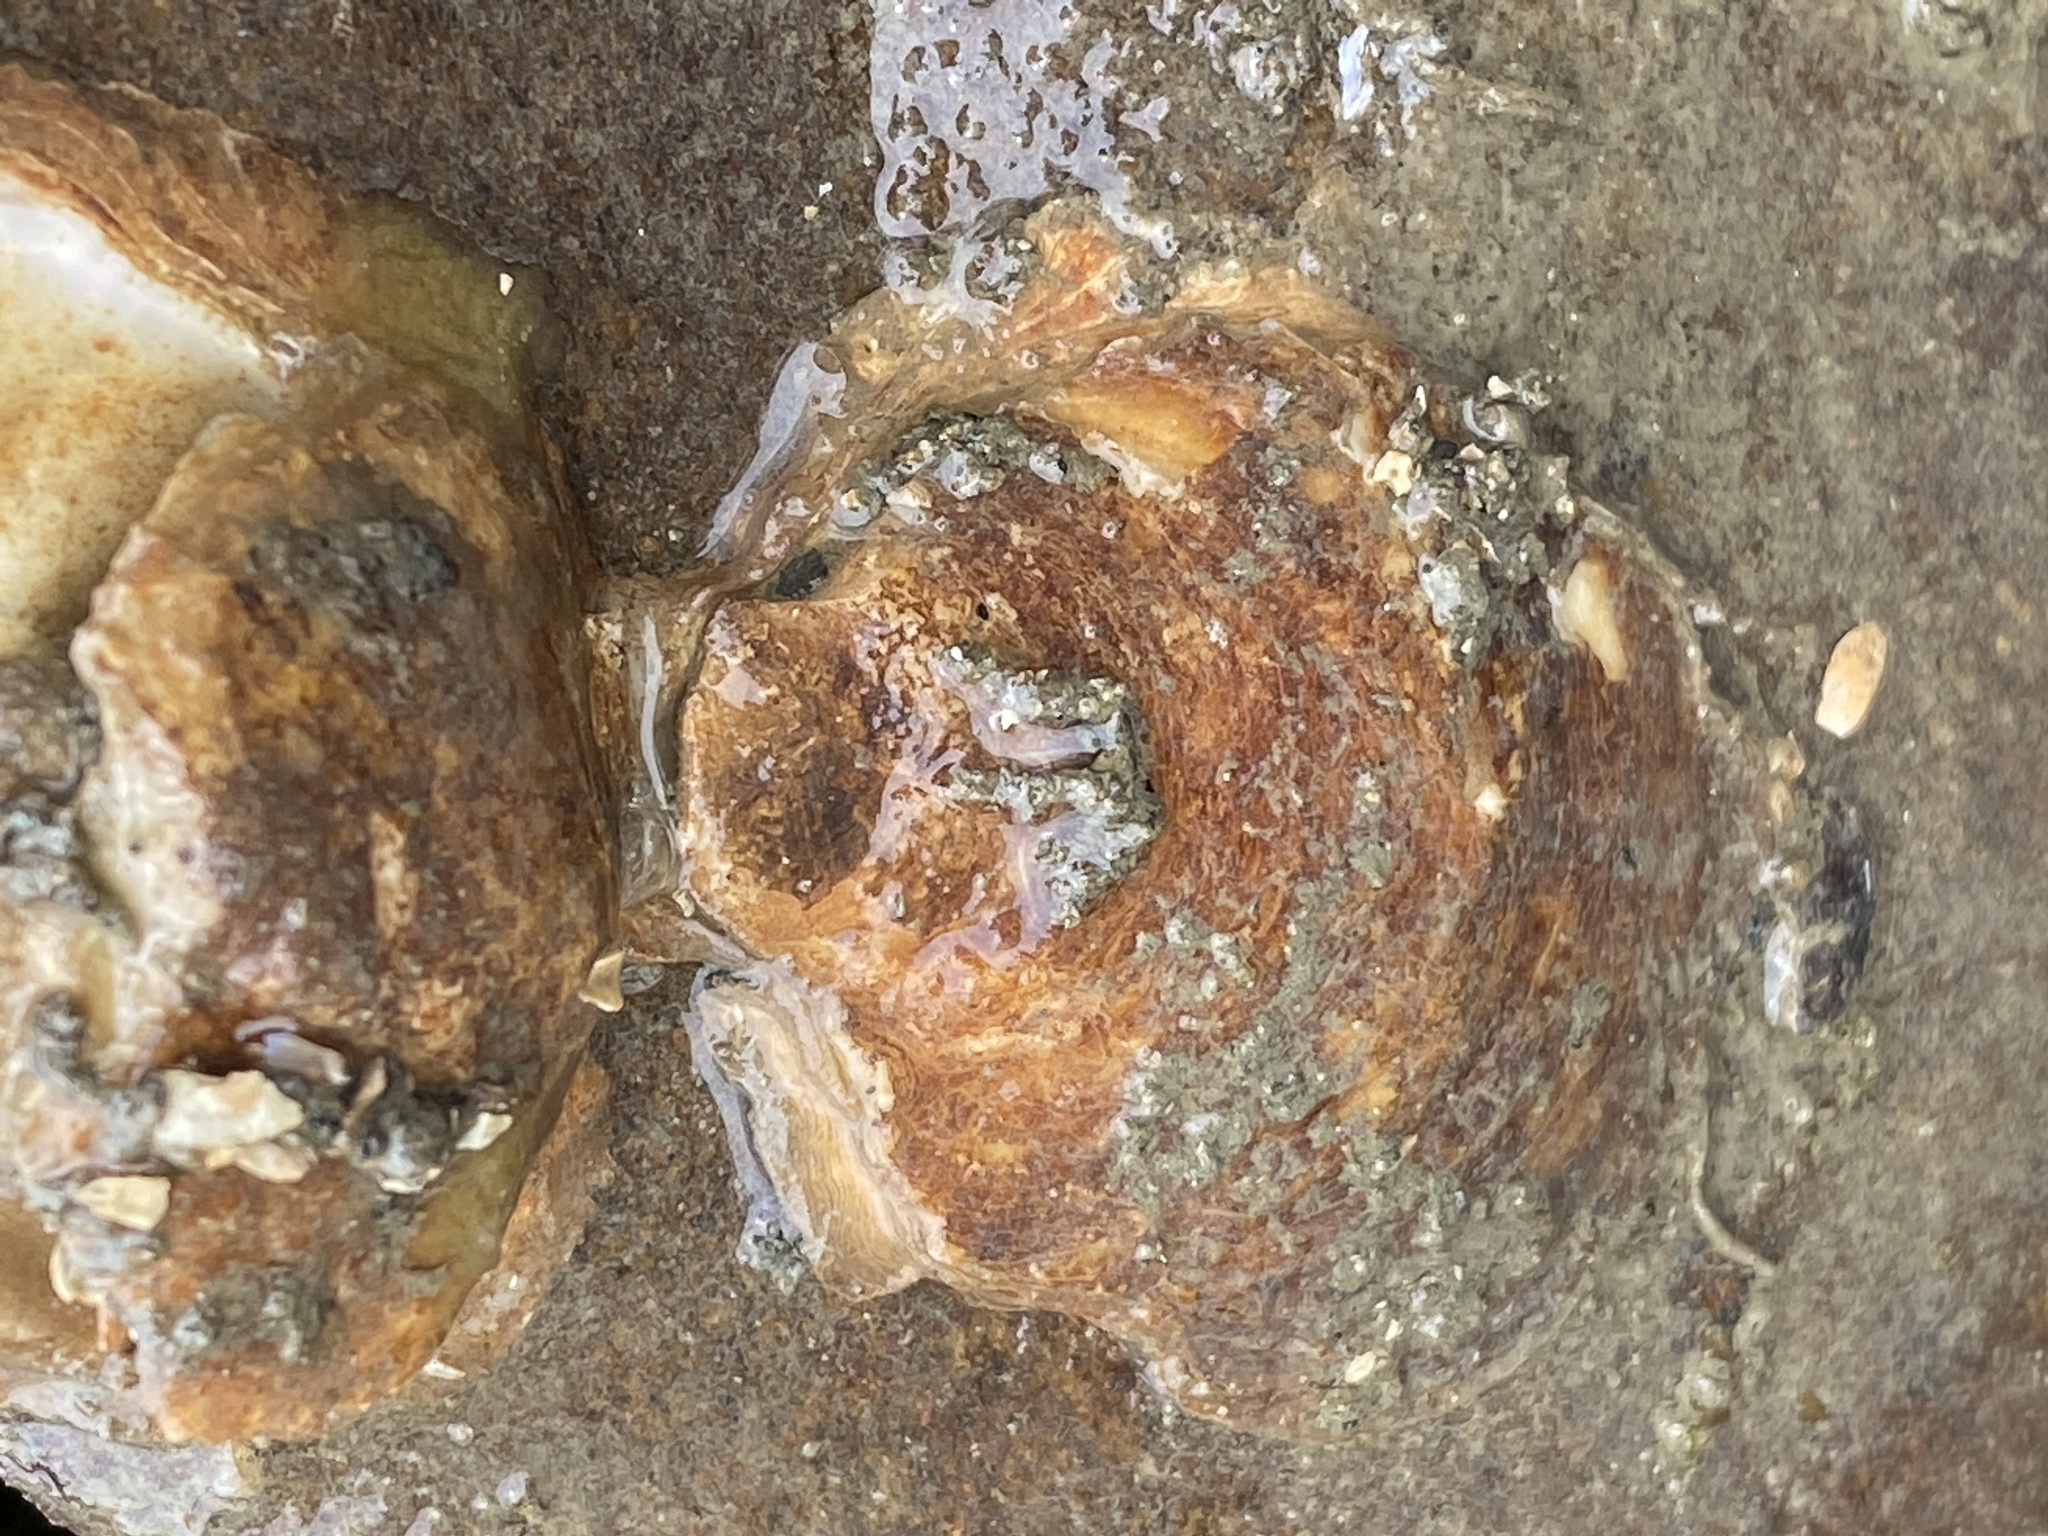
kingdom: Animalia
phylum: Mollusca
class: Bivalvia
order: Ostreida
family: Ostreidae
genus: Ostrea
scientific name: Ostrea lurida
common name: Olympia flat oyster
